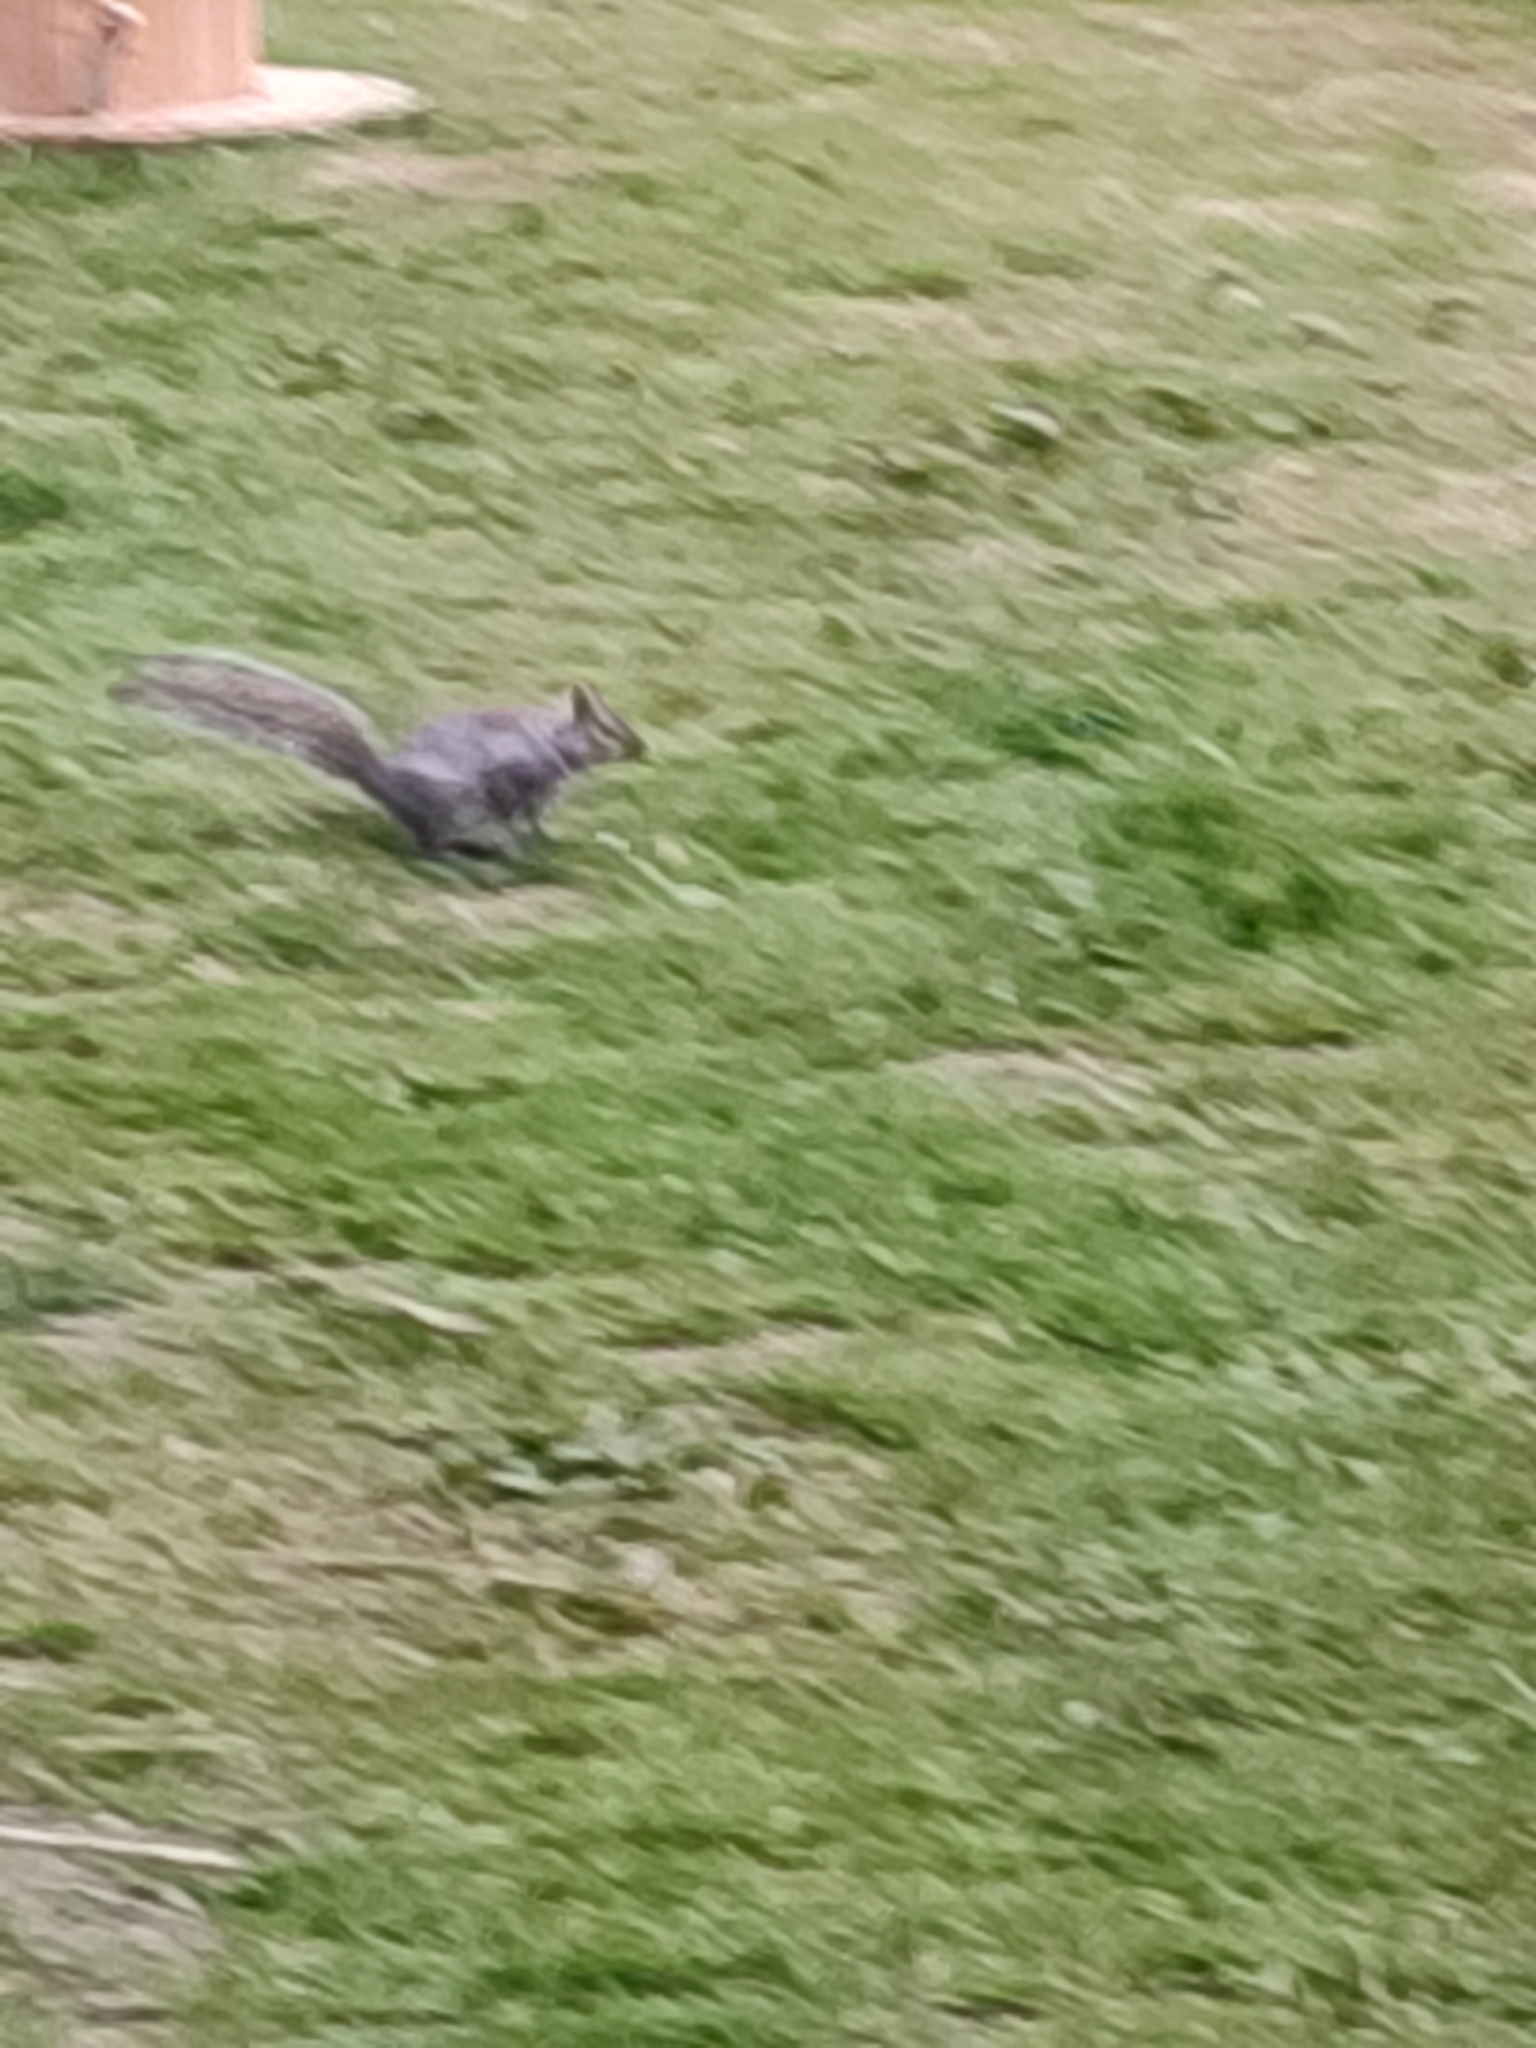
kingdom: Animalia
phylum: Chordata
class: Mammalia
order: Rodentia
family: Sciuridae
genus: Sciurus
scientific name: Sciurus carolinensis
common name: Eastern gray squirrel
